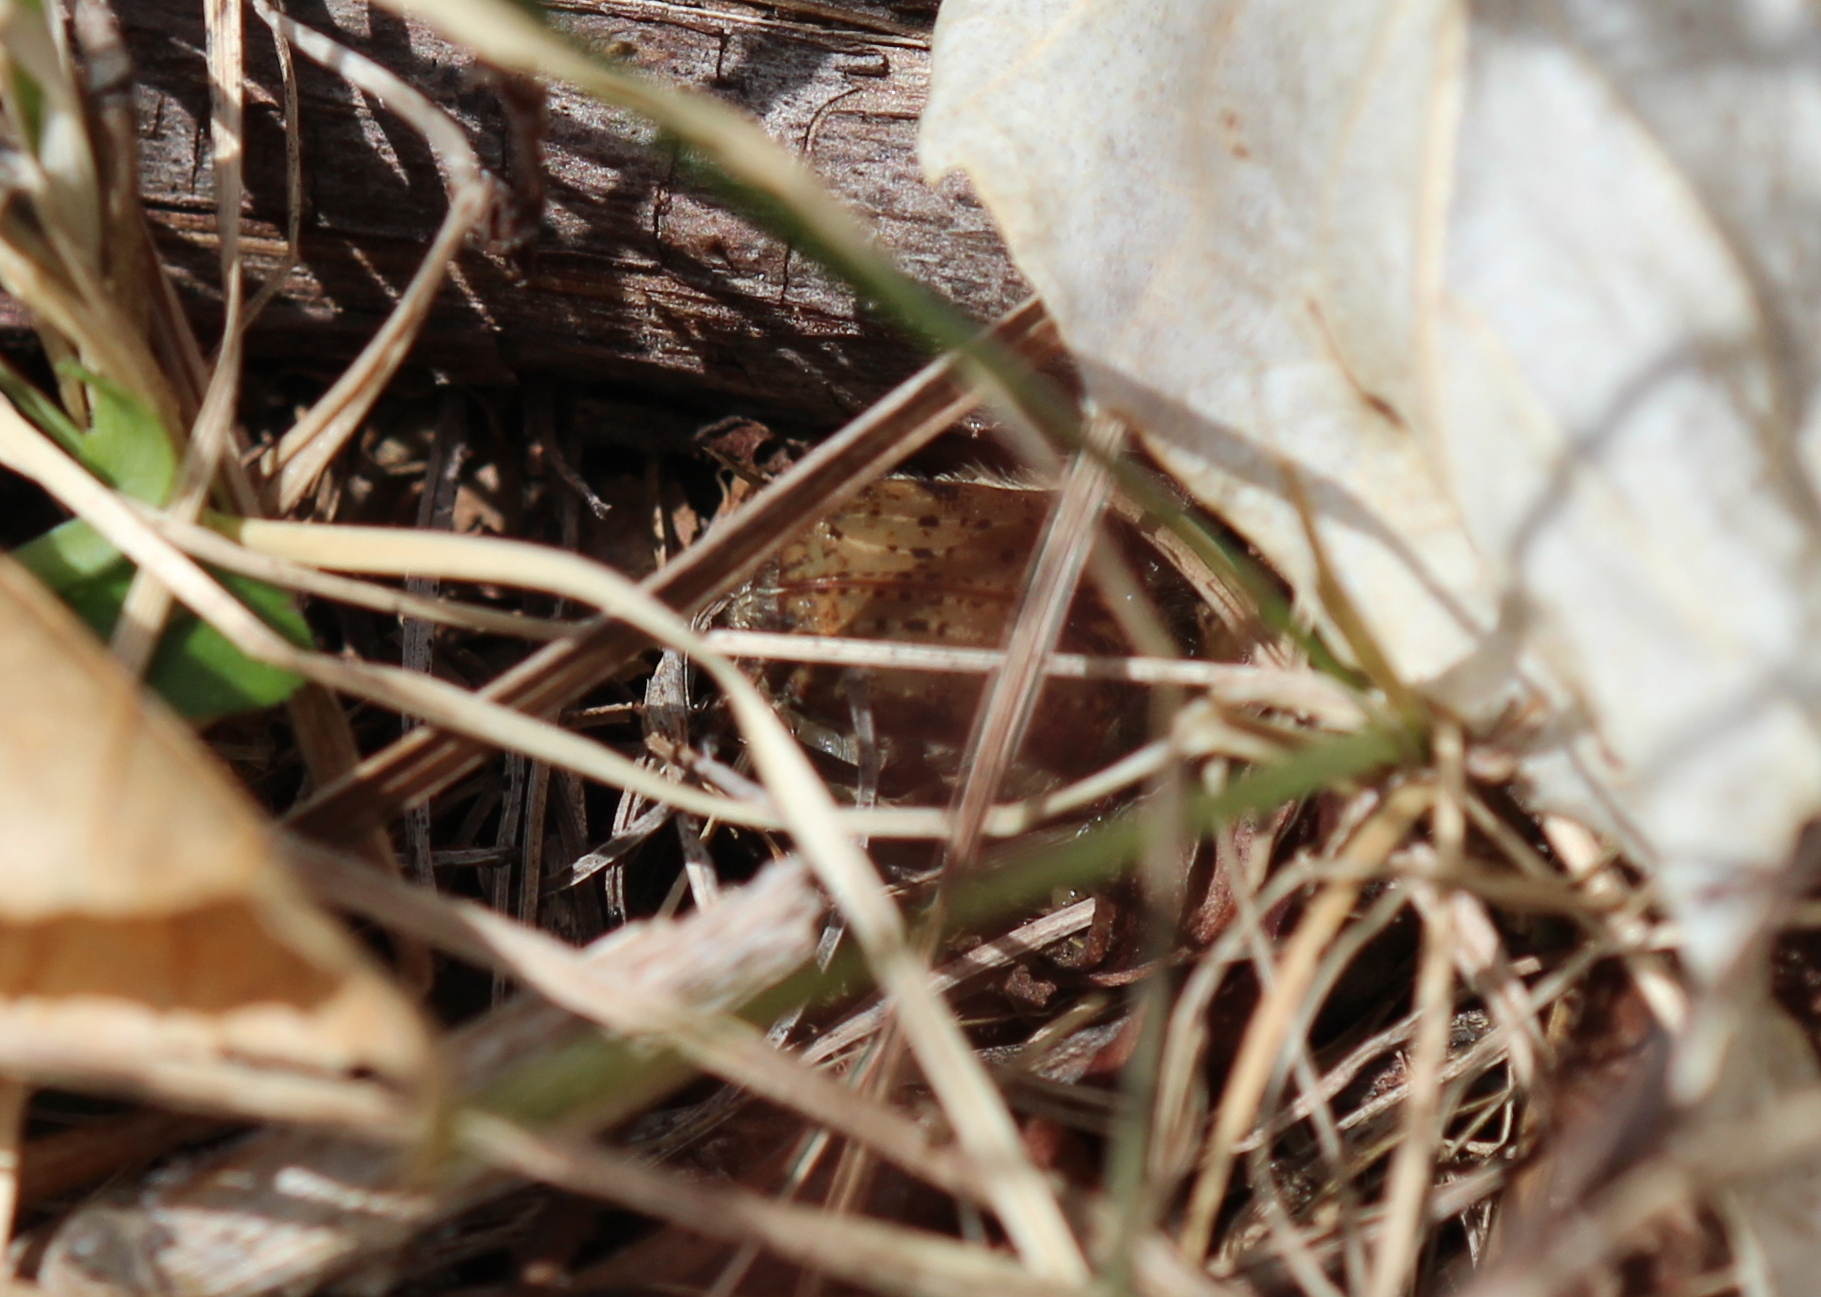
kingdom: Animalia
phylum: Arthropoda
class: Insecta
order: Coleoptera
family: Scarabaeidae
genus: Euphoria
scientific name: Euphoria inda
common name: Bumble flower beetle
